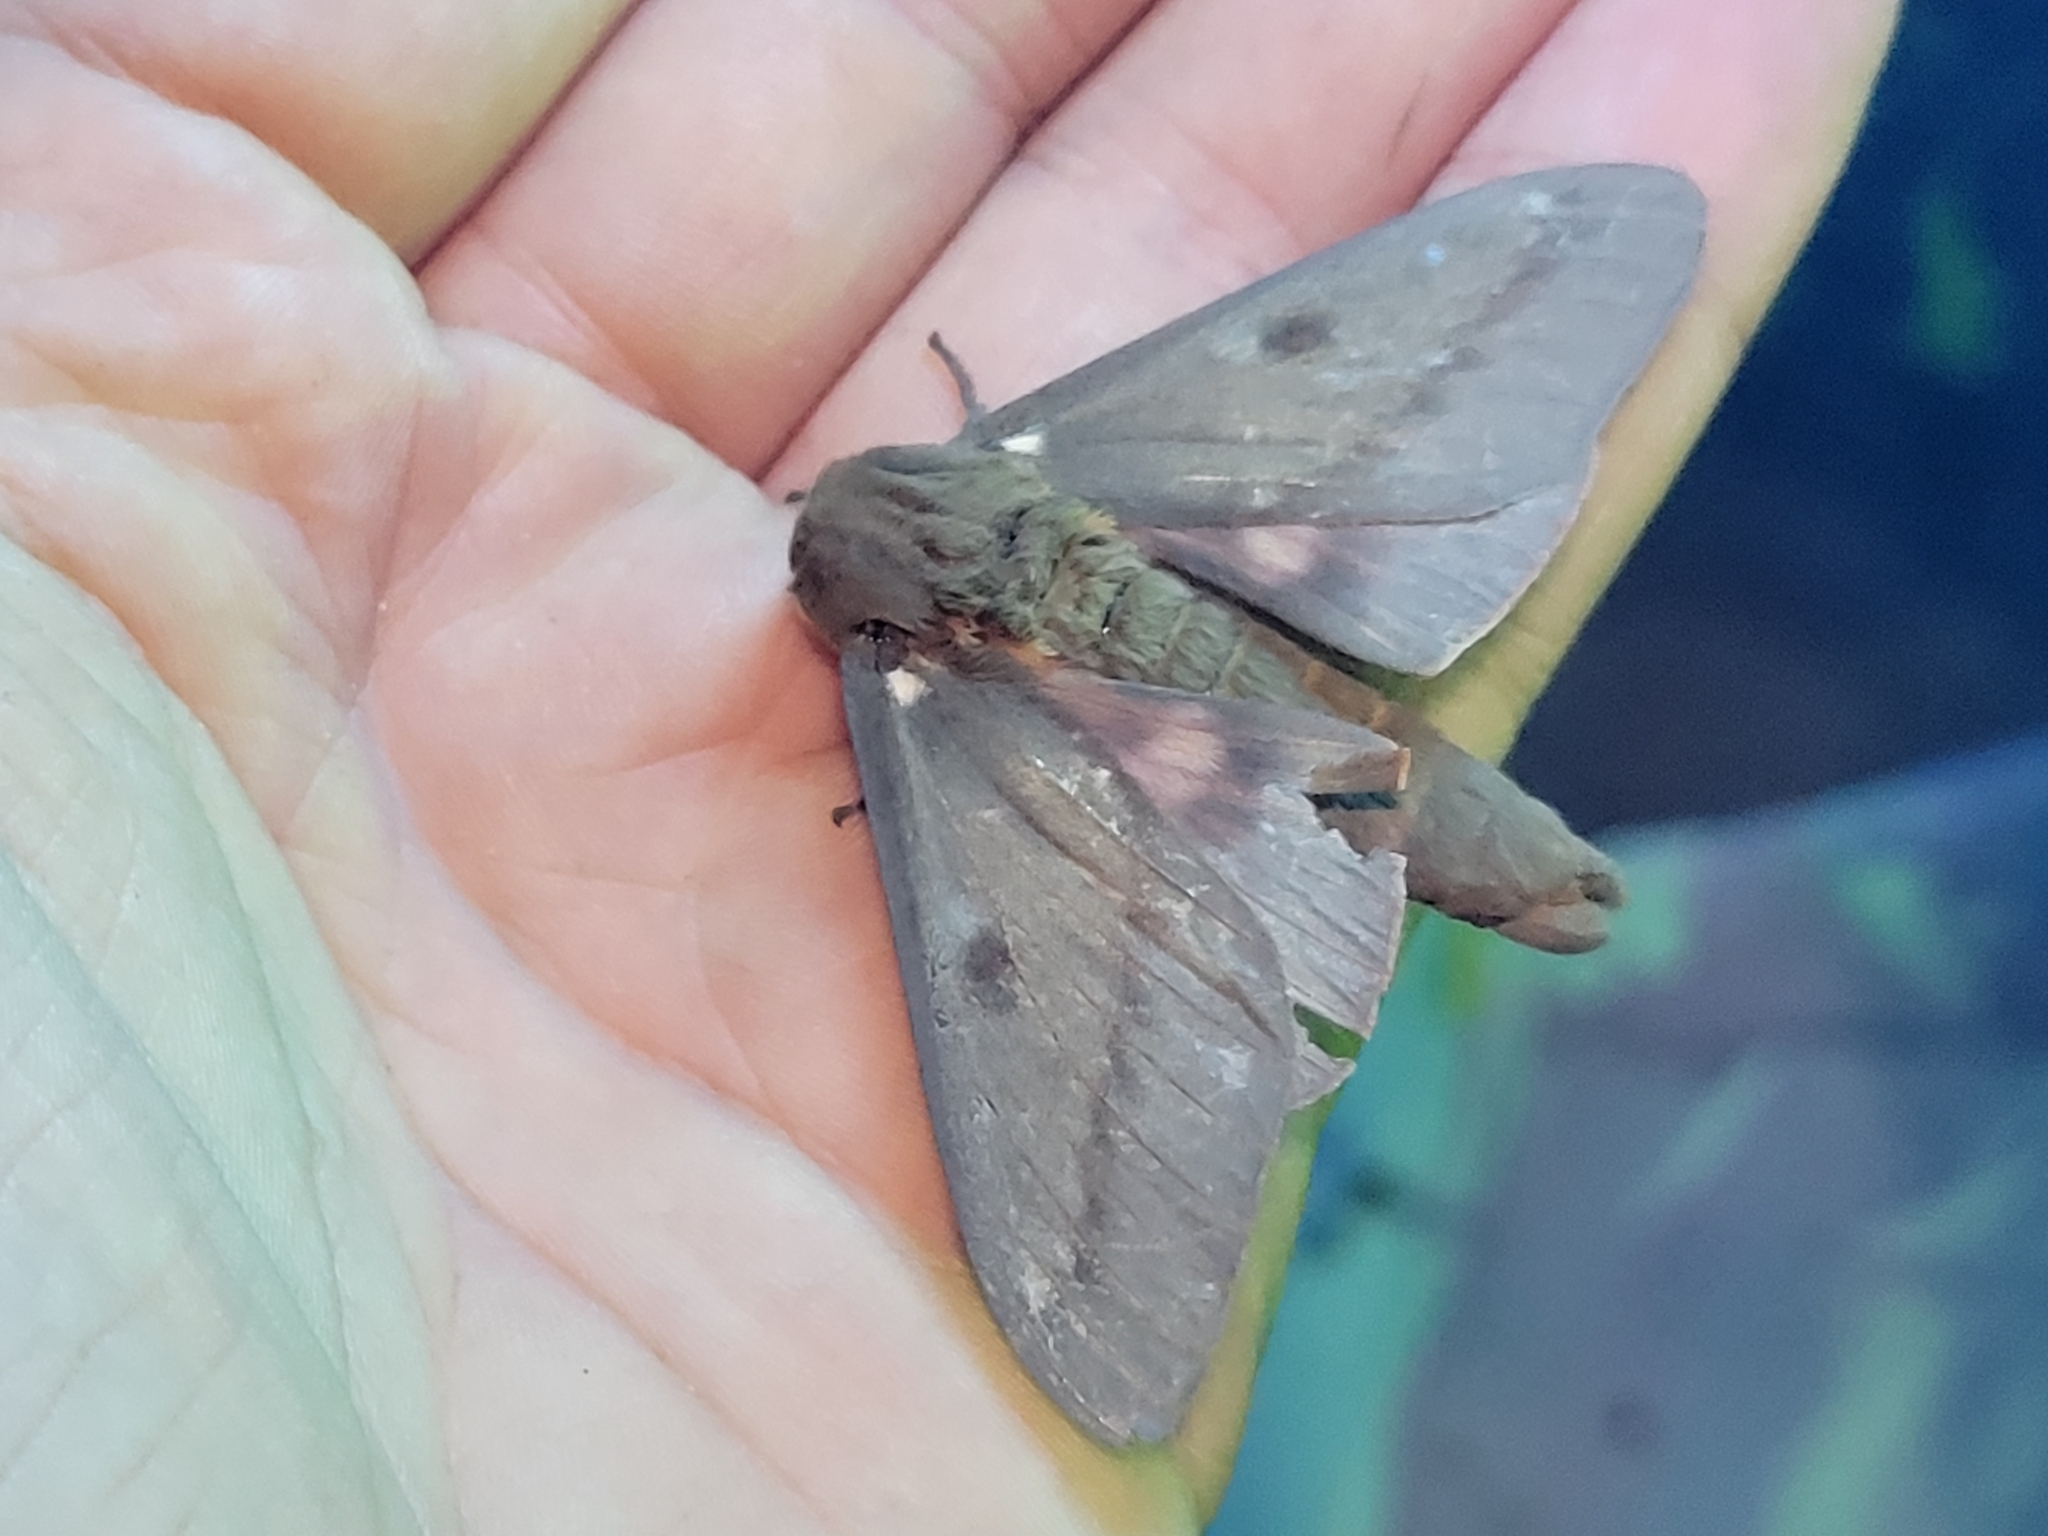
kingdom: Animalia
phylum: Arthropoda
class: Insecta
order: Lepidoptera
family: Saturniidae
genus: Citheronia
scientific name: Citheronia sepulcralis
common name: Pine-devil moth
